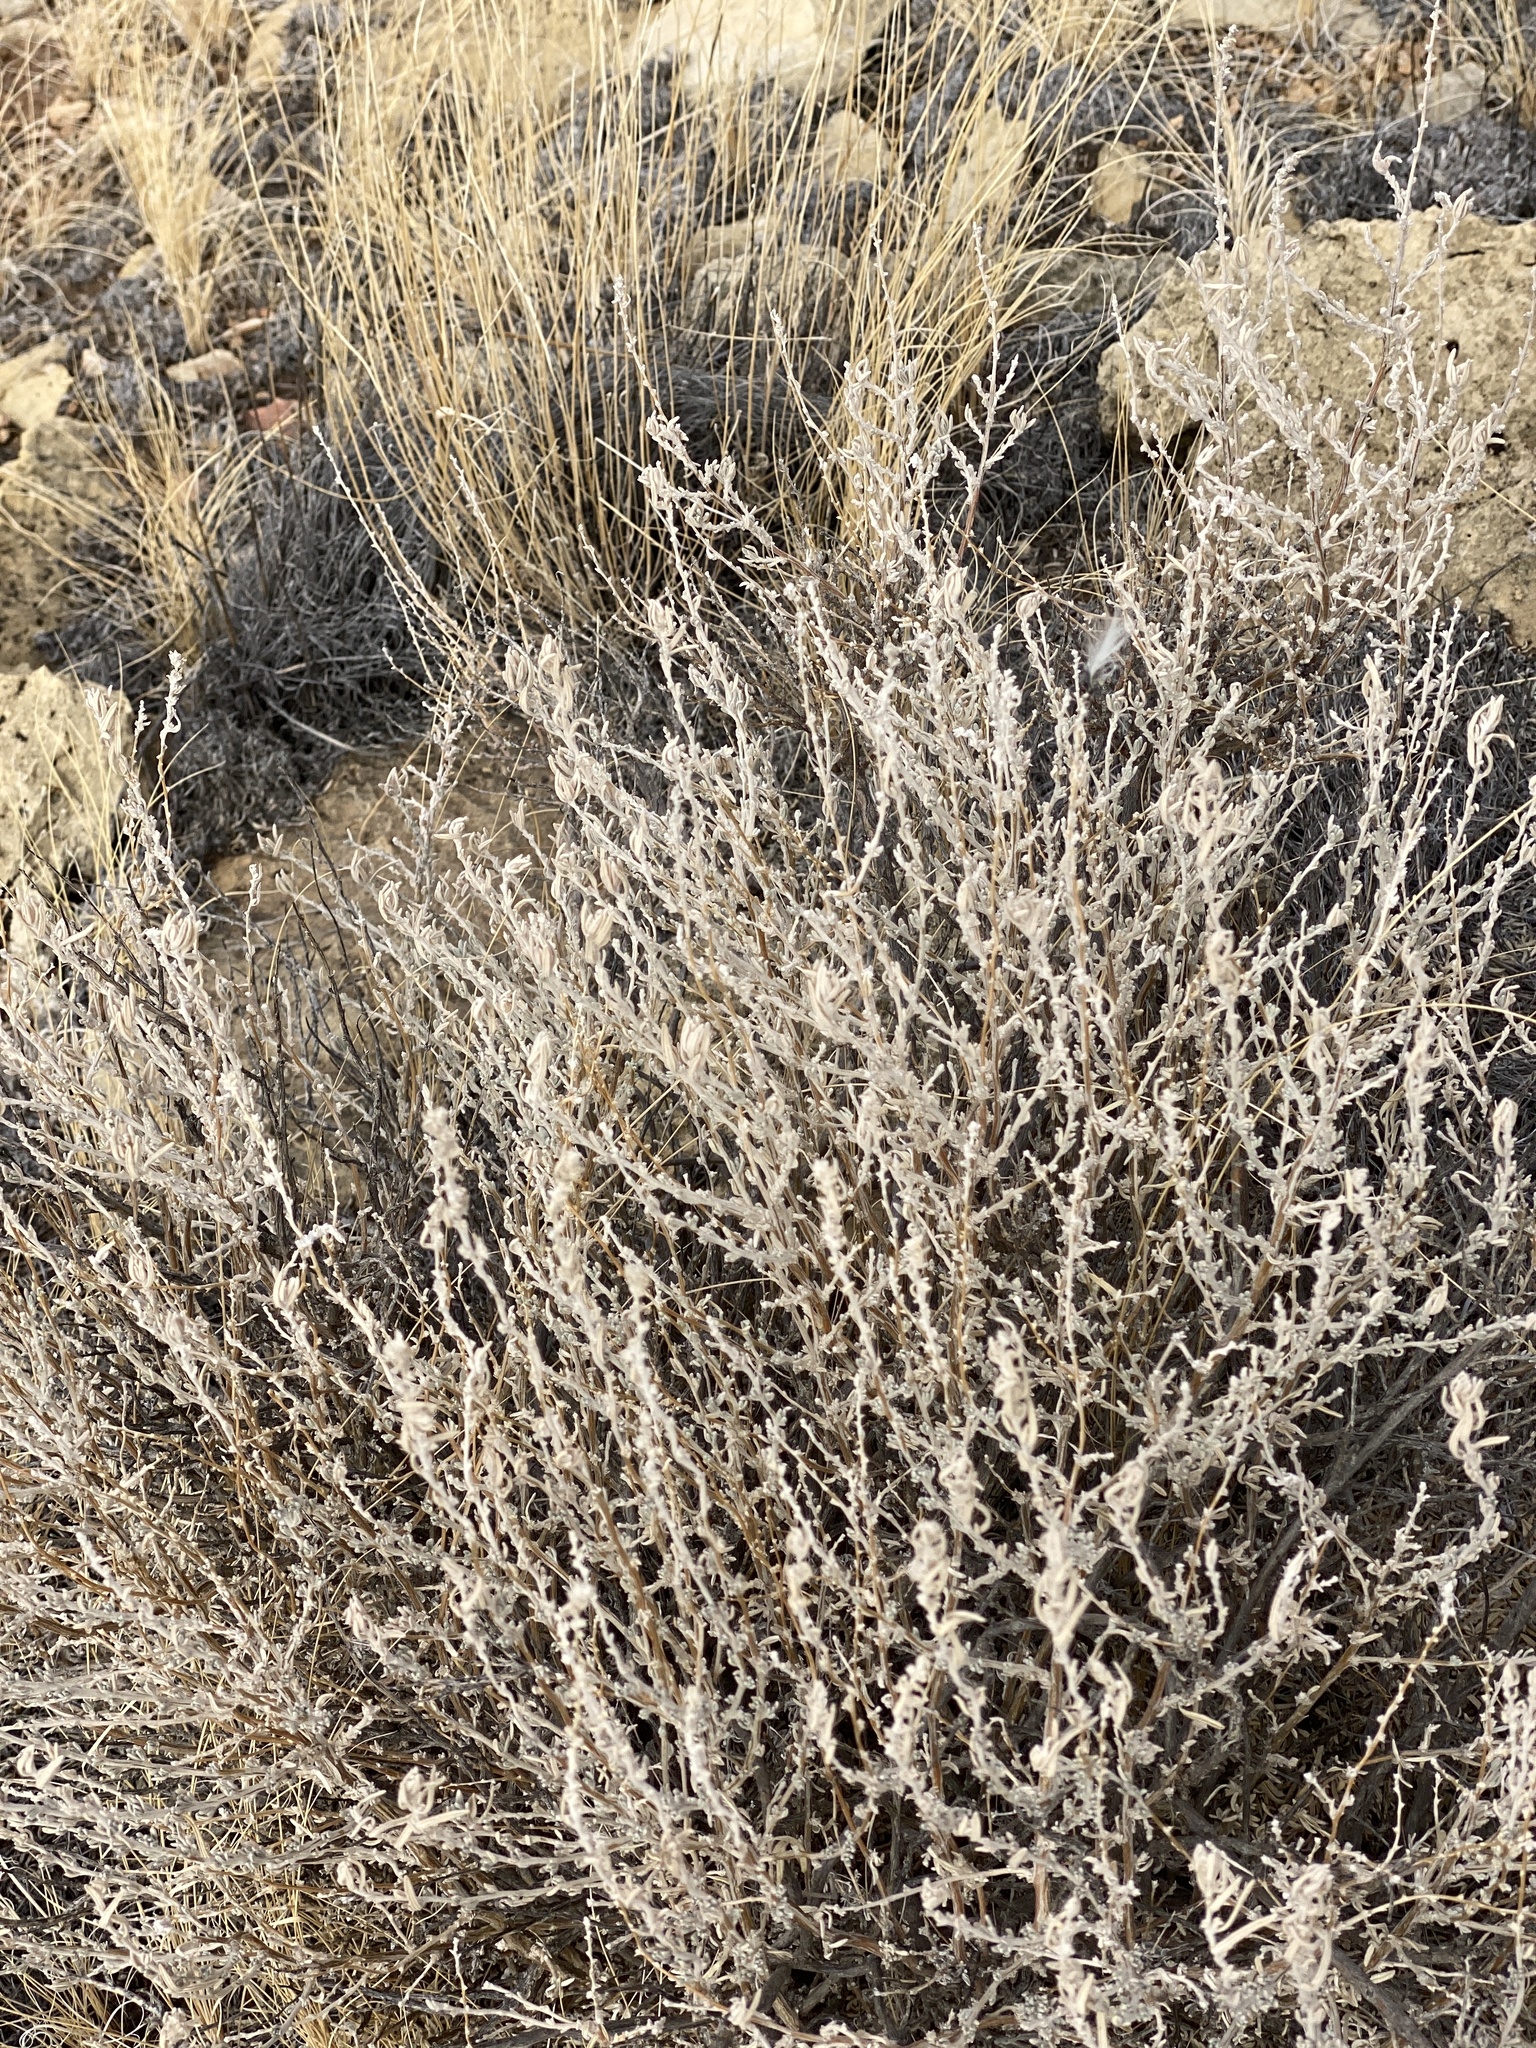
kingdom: Plantae
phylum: Tracheophyta
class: Magnoliopsida
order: Caryophyllales
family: Amaranthaceae
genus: Krascheninnikovia
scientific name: Krascheninnikovia lanata
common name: Winterfat
